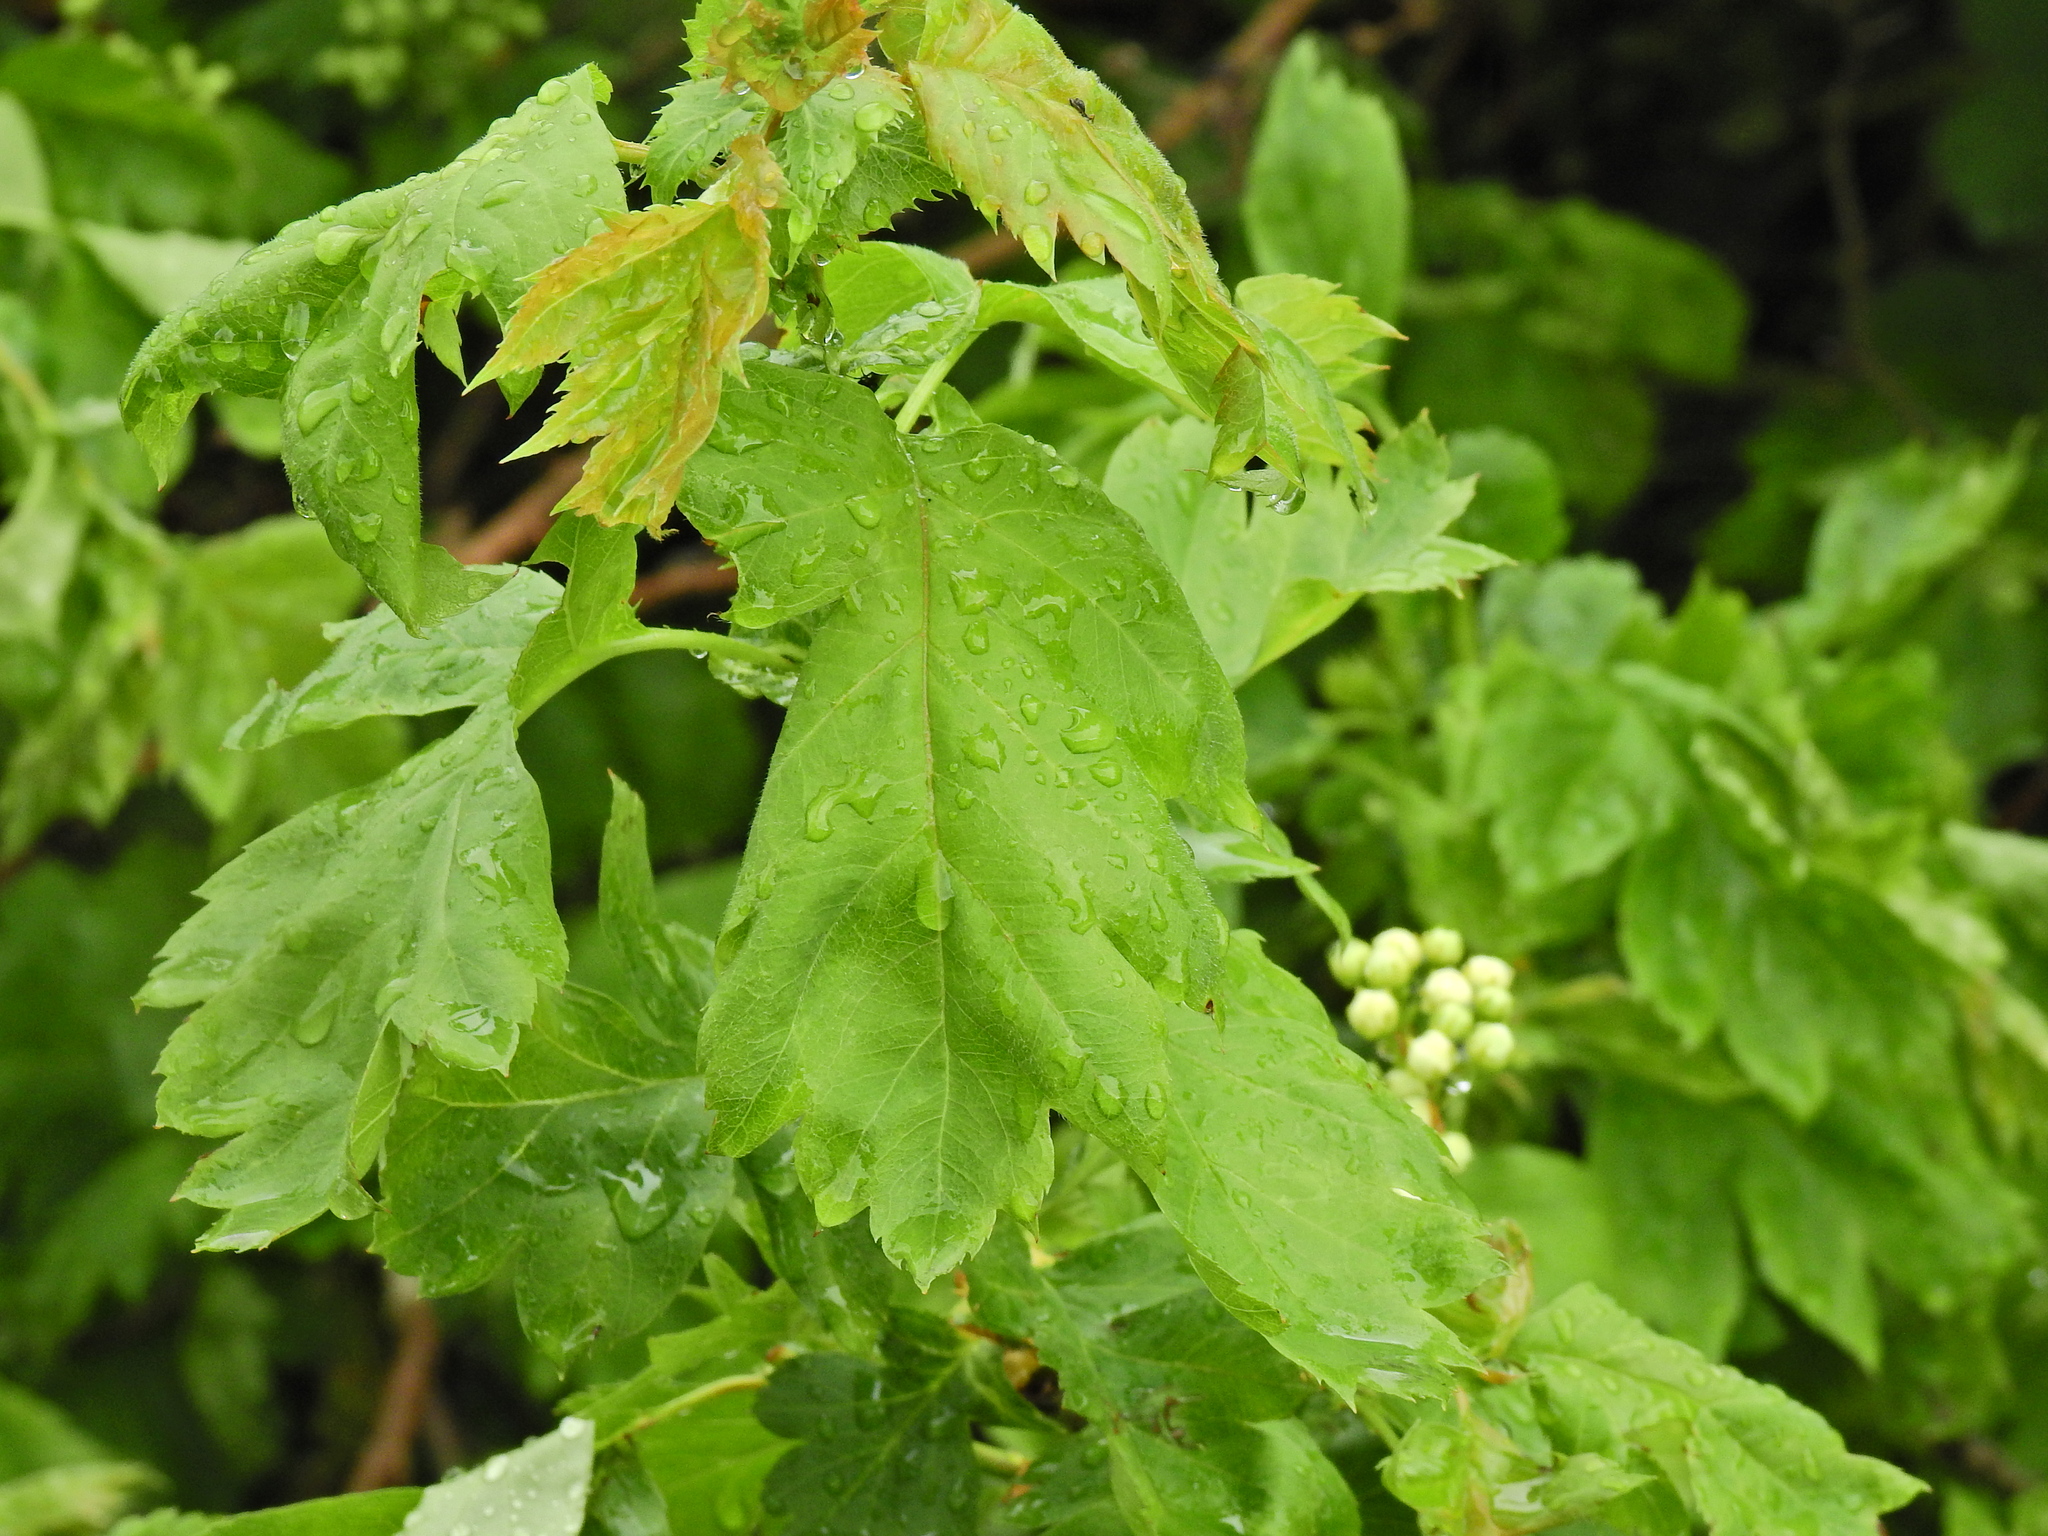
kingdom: Plantae
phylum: Tracheophyta
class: Magnoliopsida
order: Rosales
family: Rosaceae
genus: Crataegus
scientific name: Crataegus monogyna
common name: Hawthorn
